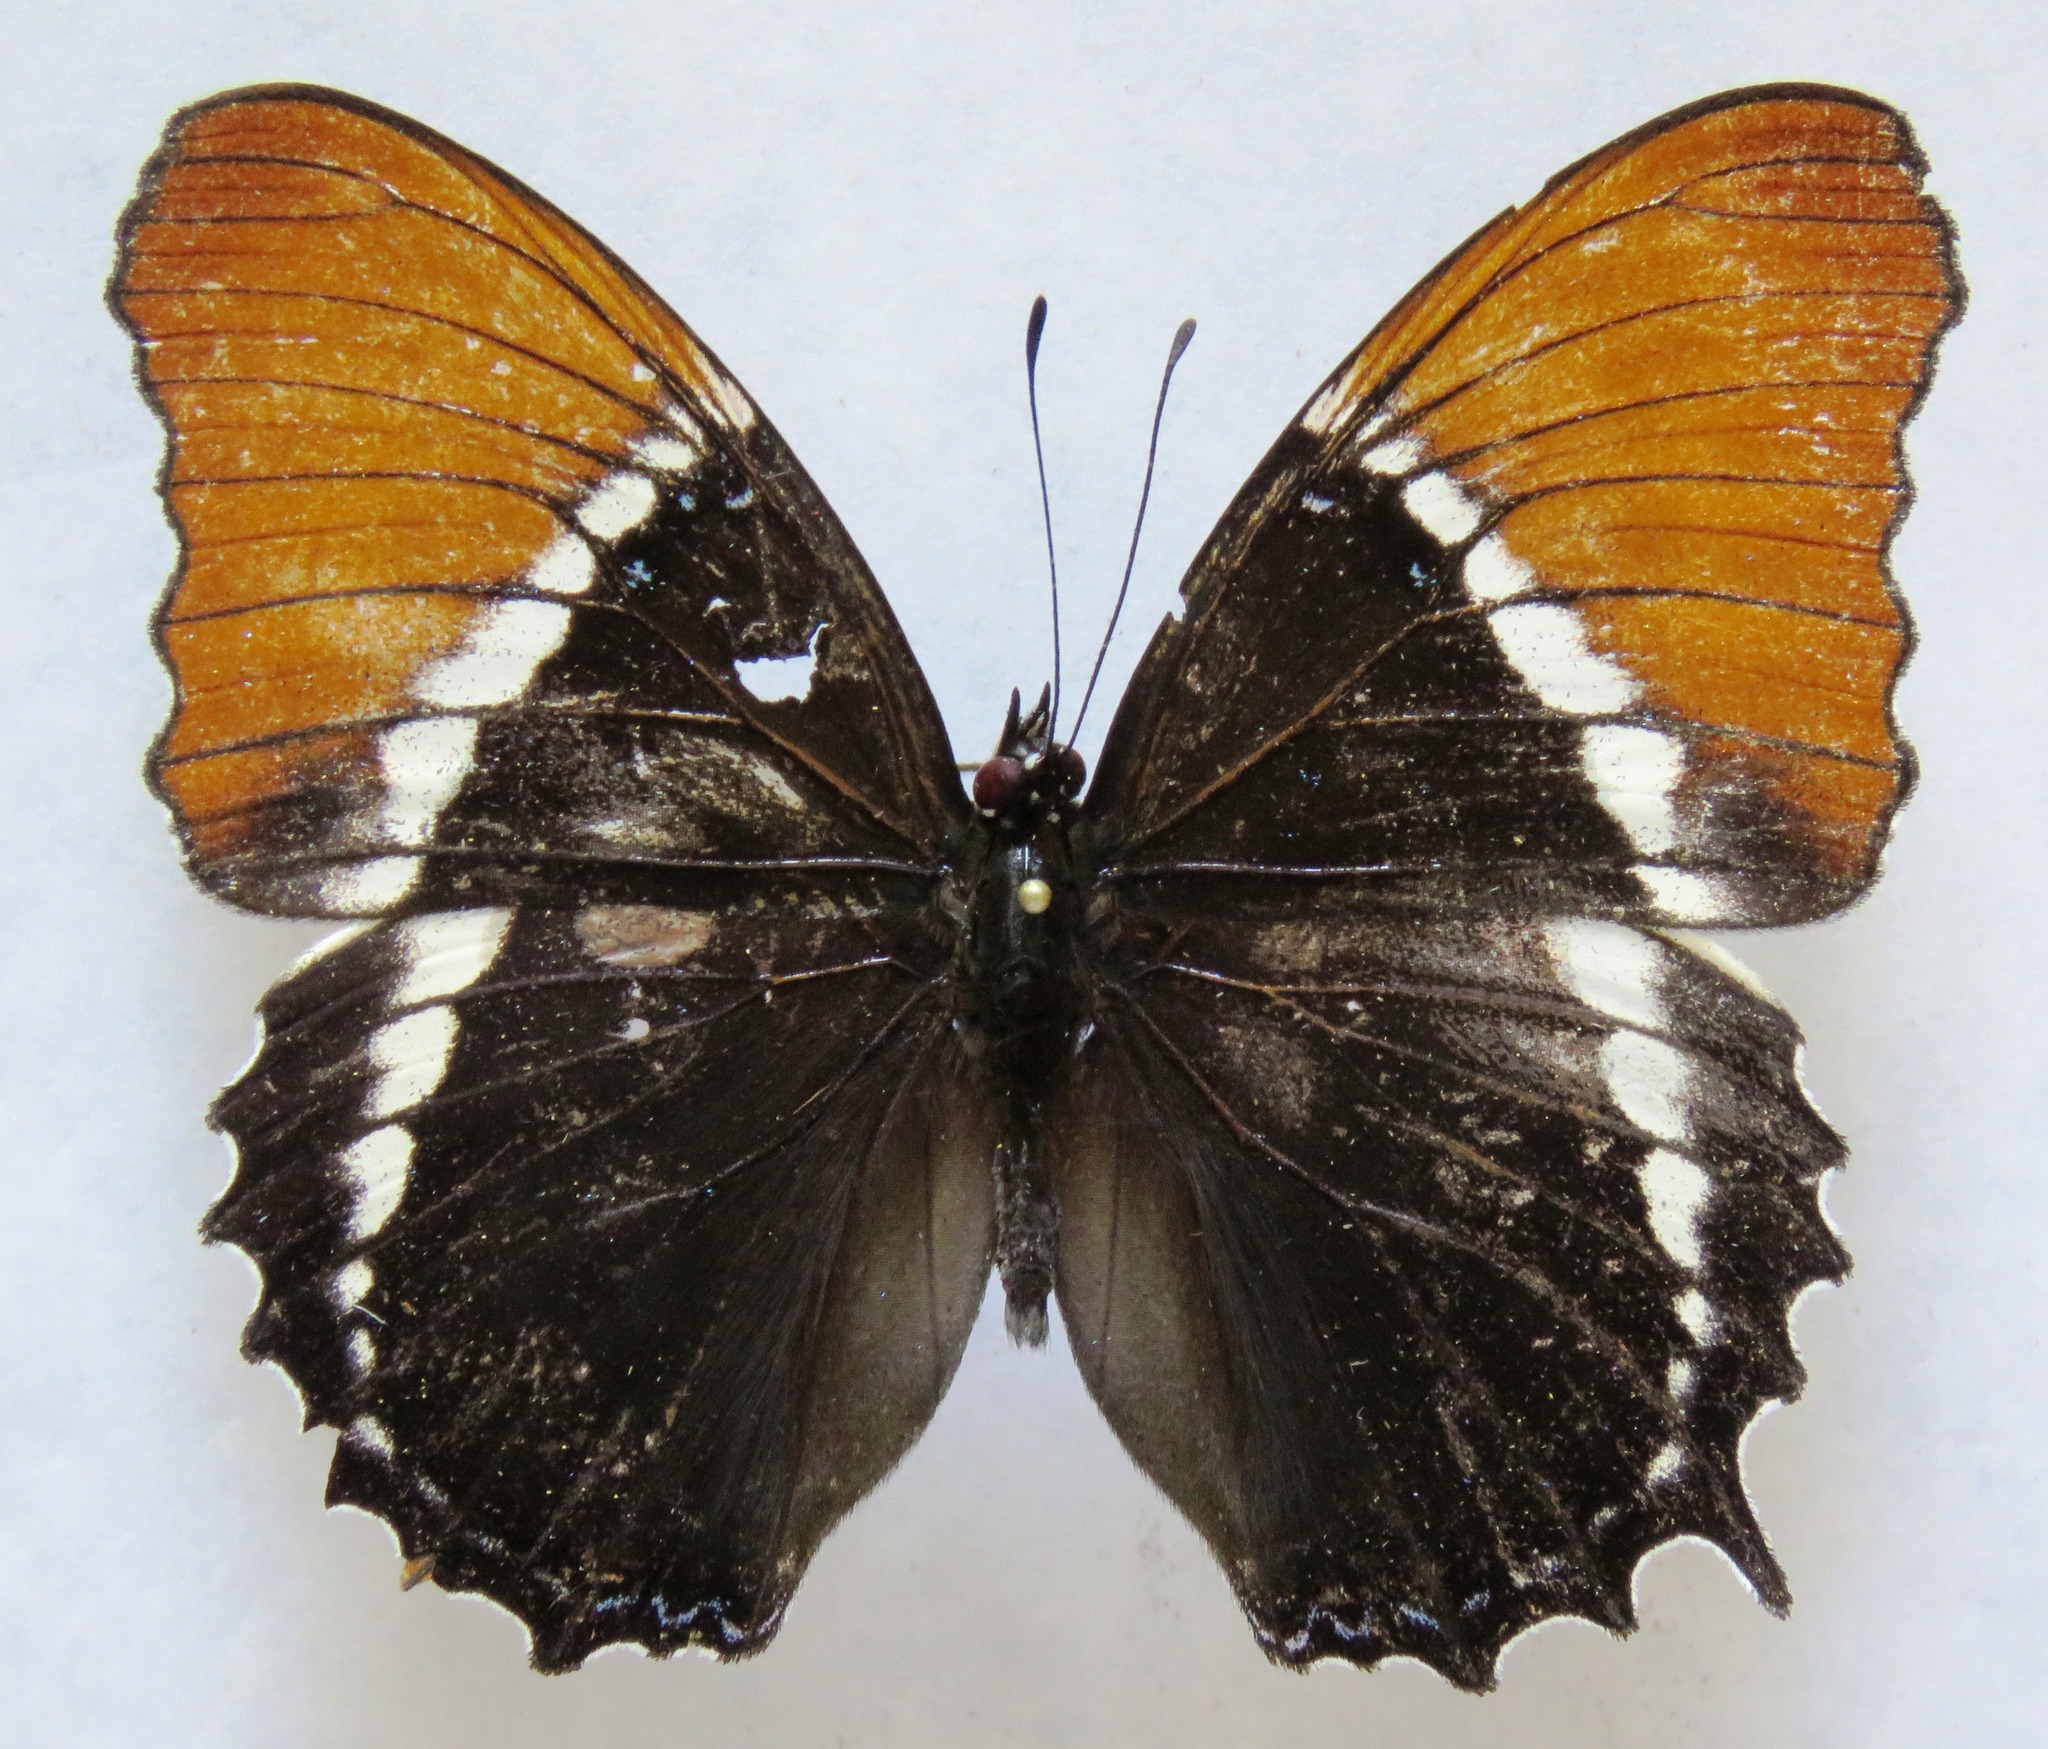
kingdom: Animalia
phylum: Arthropoda
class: Insecta
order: Lepidoptera
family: Nymphalidae
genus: Siproeta
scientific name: Siproeta epaphus
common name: Rusty-tipped page
